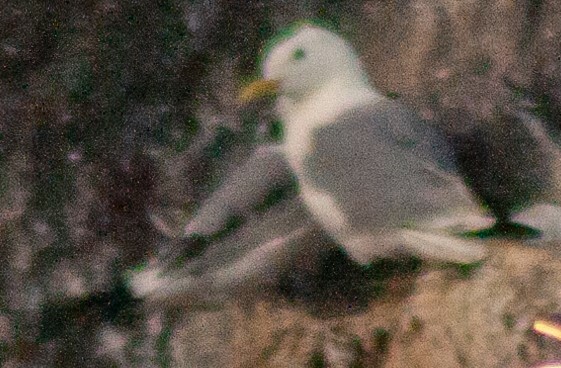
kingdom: Animalia
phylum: Chordata
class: Aves
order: Charadriiformes
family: Laridae
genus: Rissa
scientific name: Rissa tridactyla
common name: Black-legged kittiwake
